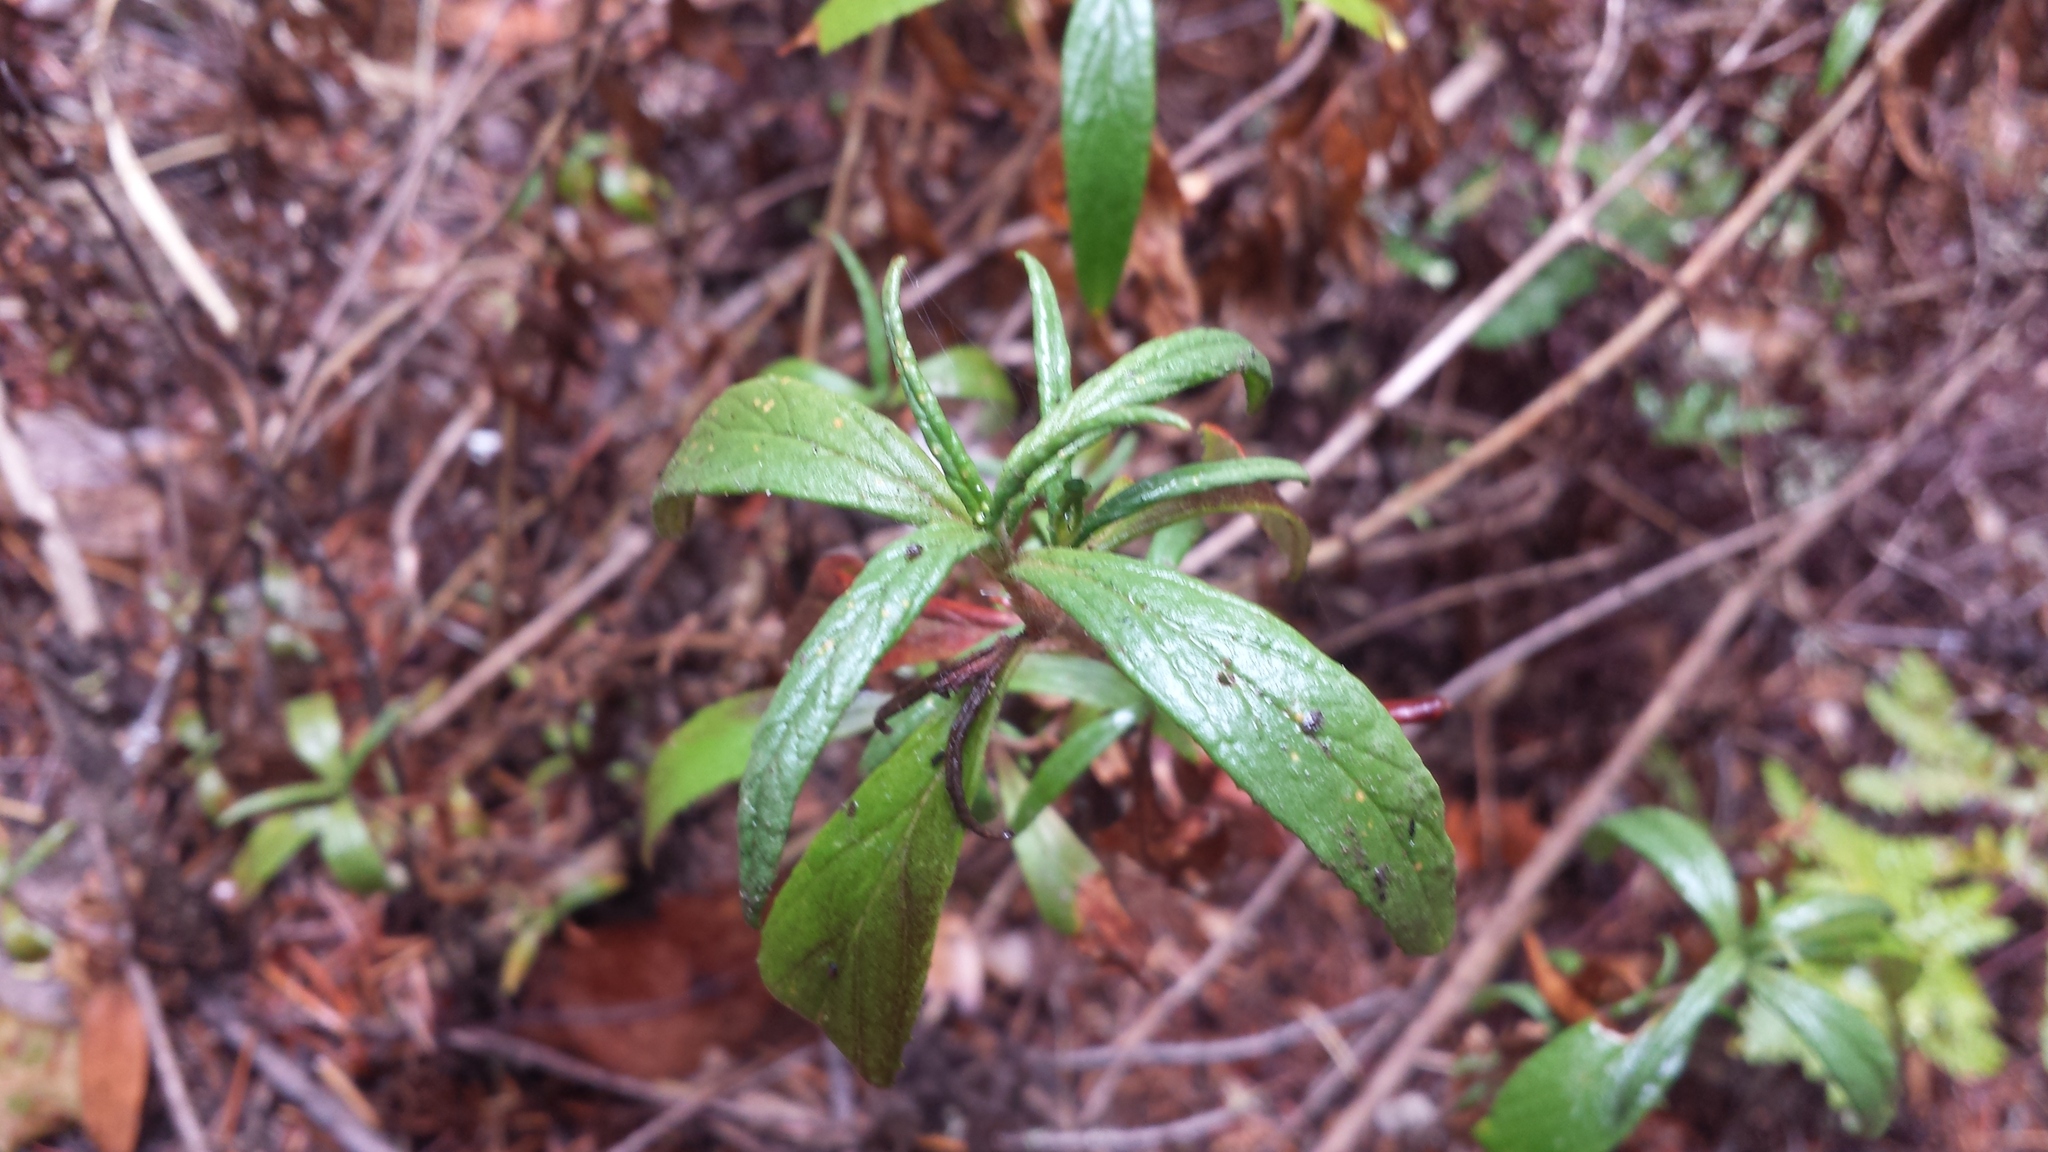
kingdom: Plantae
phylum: Tracheophyta
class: Magnoliopsida
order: Lamiales
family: Phrymaceae
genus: Diplacus
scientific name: Diplacus aurantiacus
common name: Bush monkey-flower
